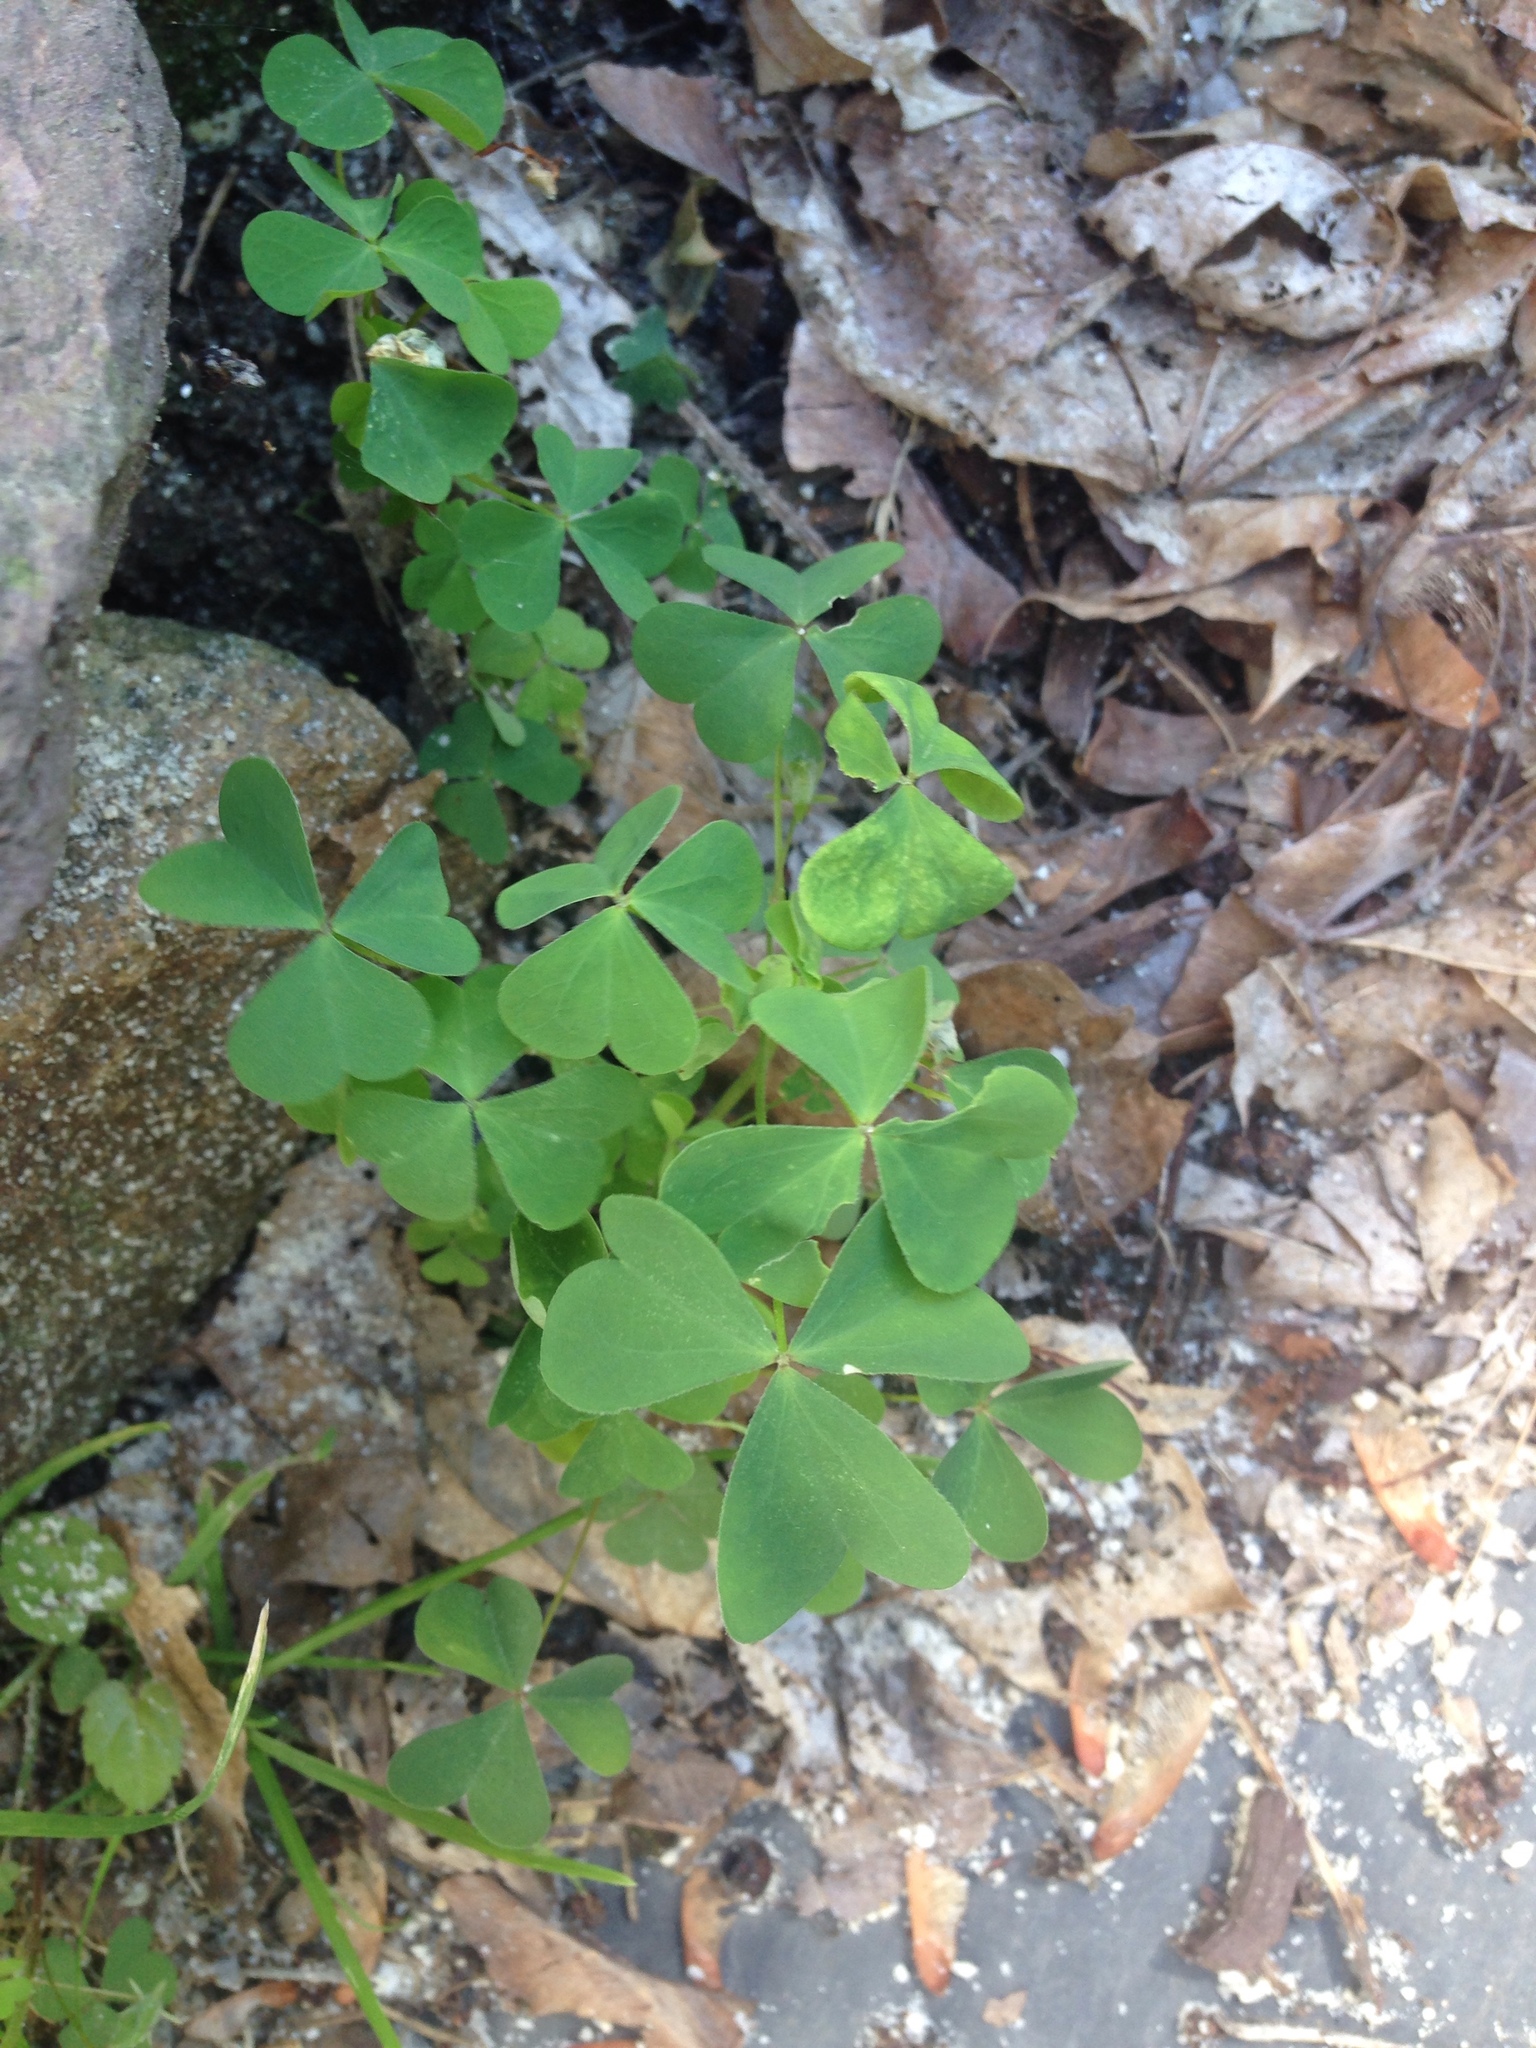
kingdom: Plantae
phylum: Tracheophyta
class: Magnoliopsida
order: Oxalidales
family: Oxalidaceae
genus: Oxalis
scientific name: Oxalis
